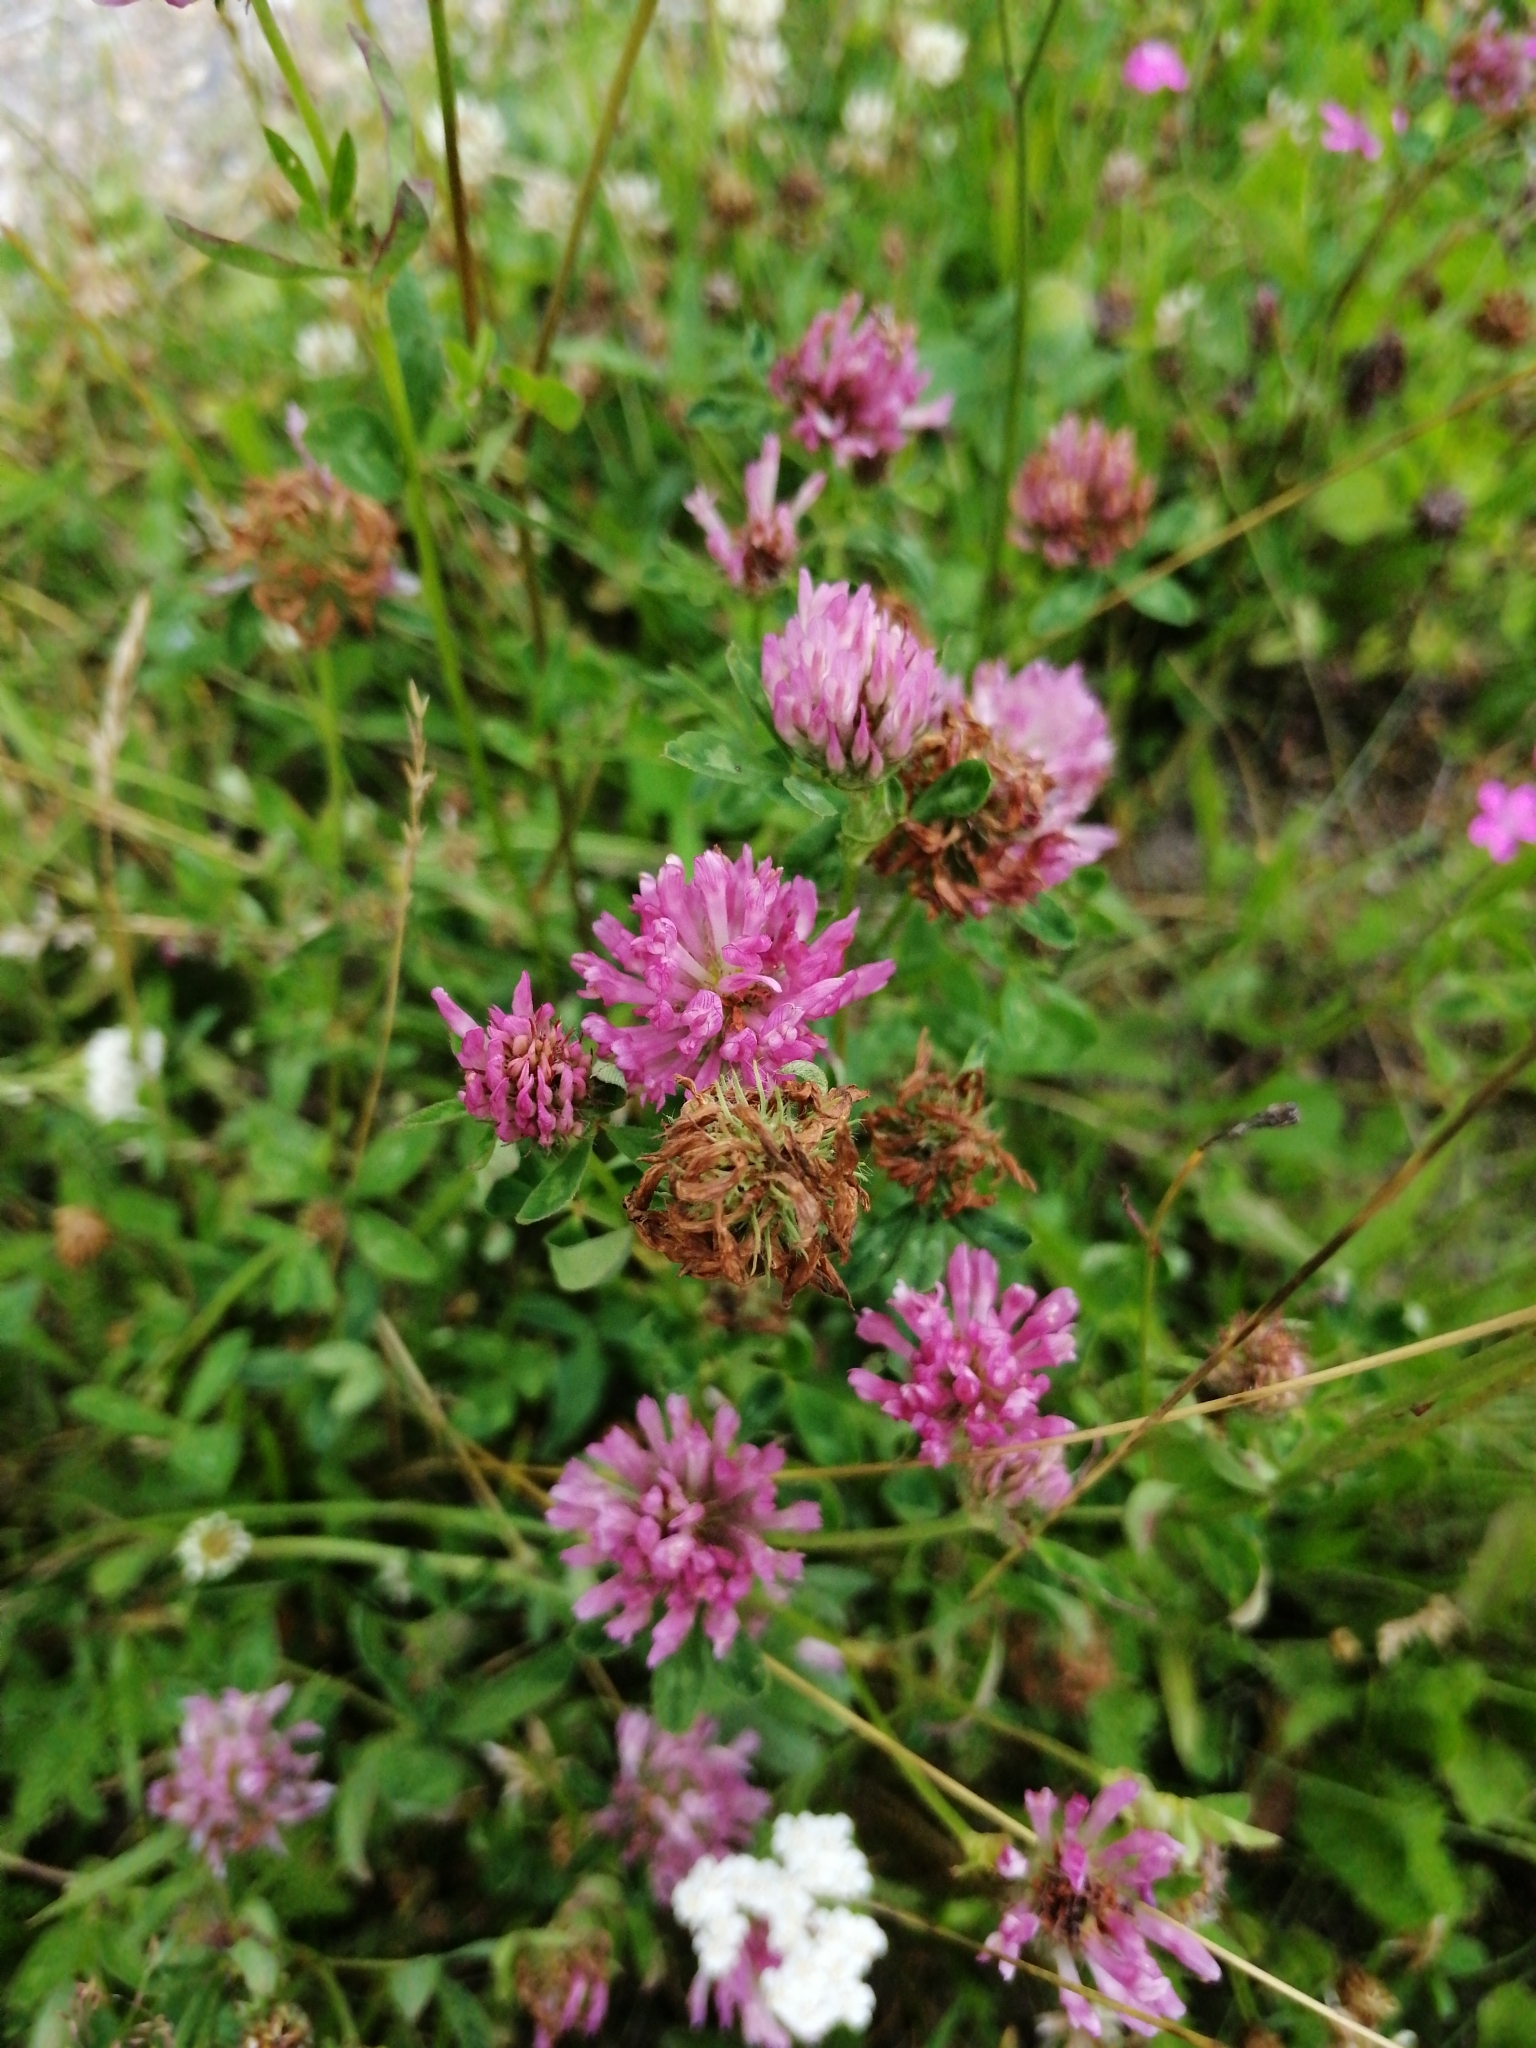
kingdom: Plantae
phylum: Tracheophyta
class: Magnoliopsida
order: Fabales
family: Fabaceae
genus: Trifolium
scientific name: Trifolium pratense
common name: Red clover
